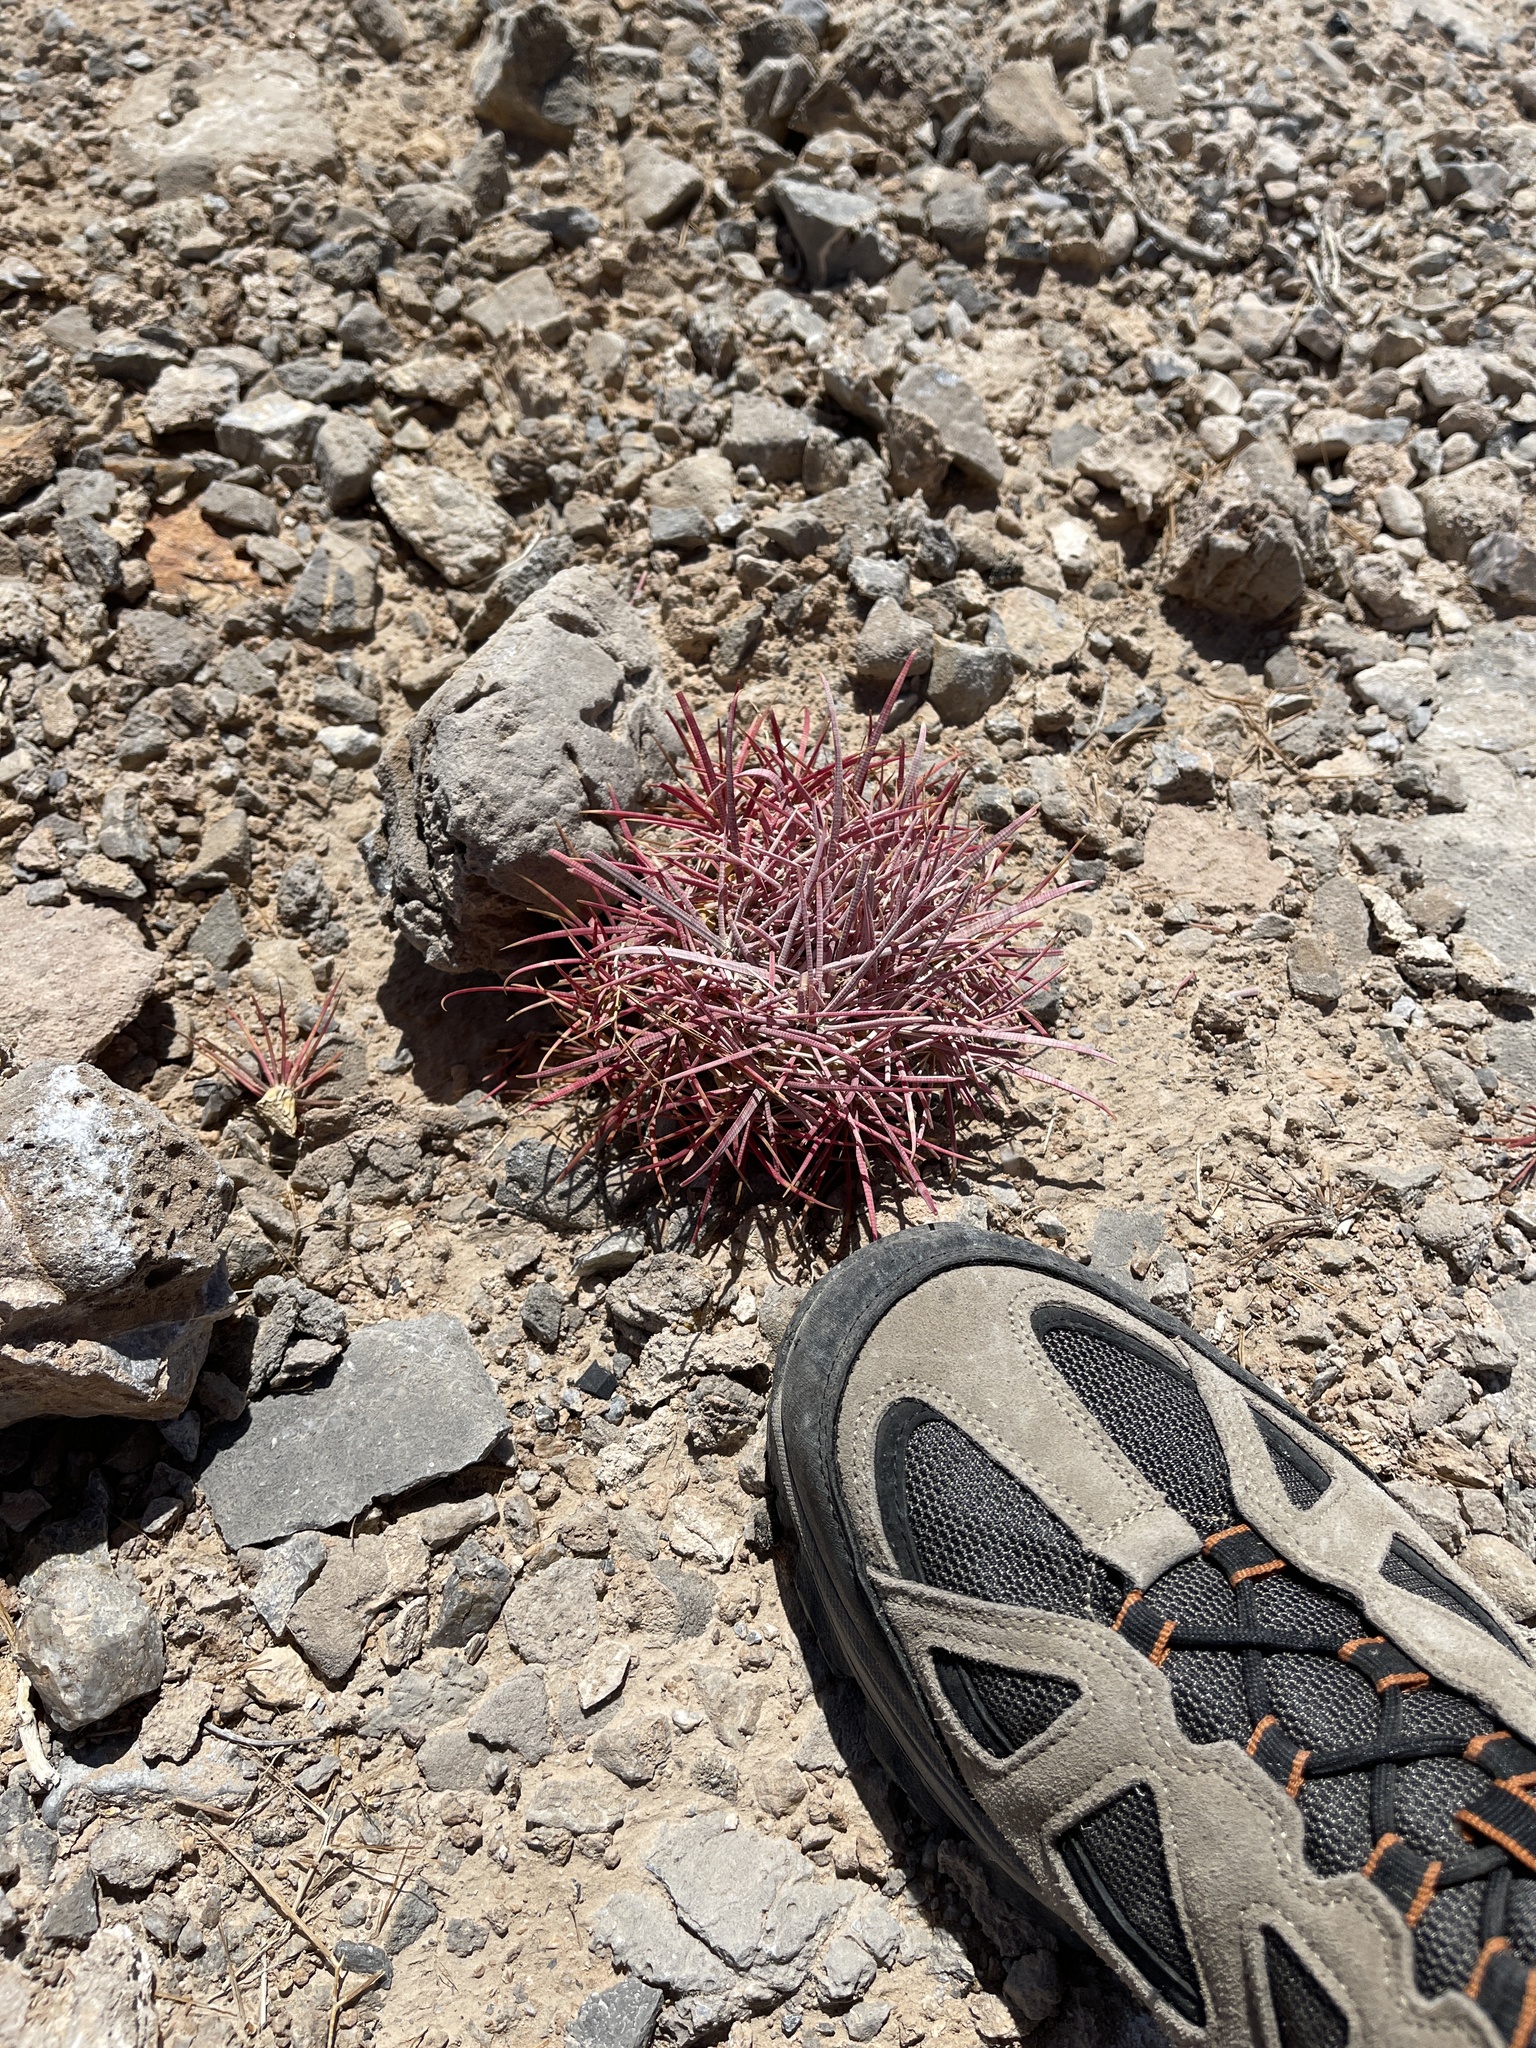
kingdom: Plantae
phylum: Tracheophyta
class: Magnoliopsida
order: Caryophyllales
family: Cactaceae
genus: Ferocactus
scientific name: Ferocactus cylindraceus
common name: California barrel cactus
